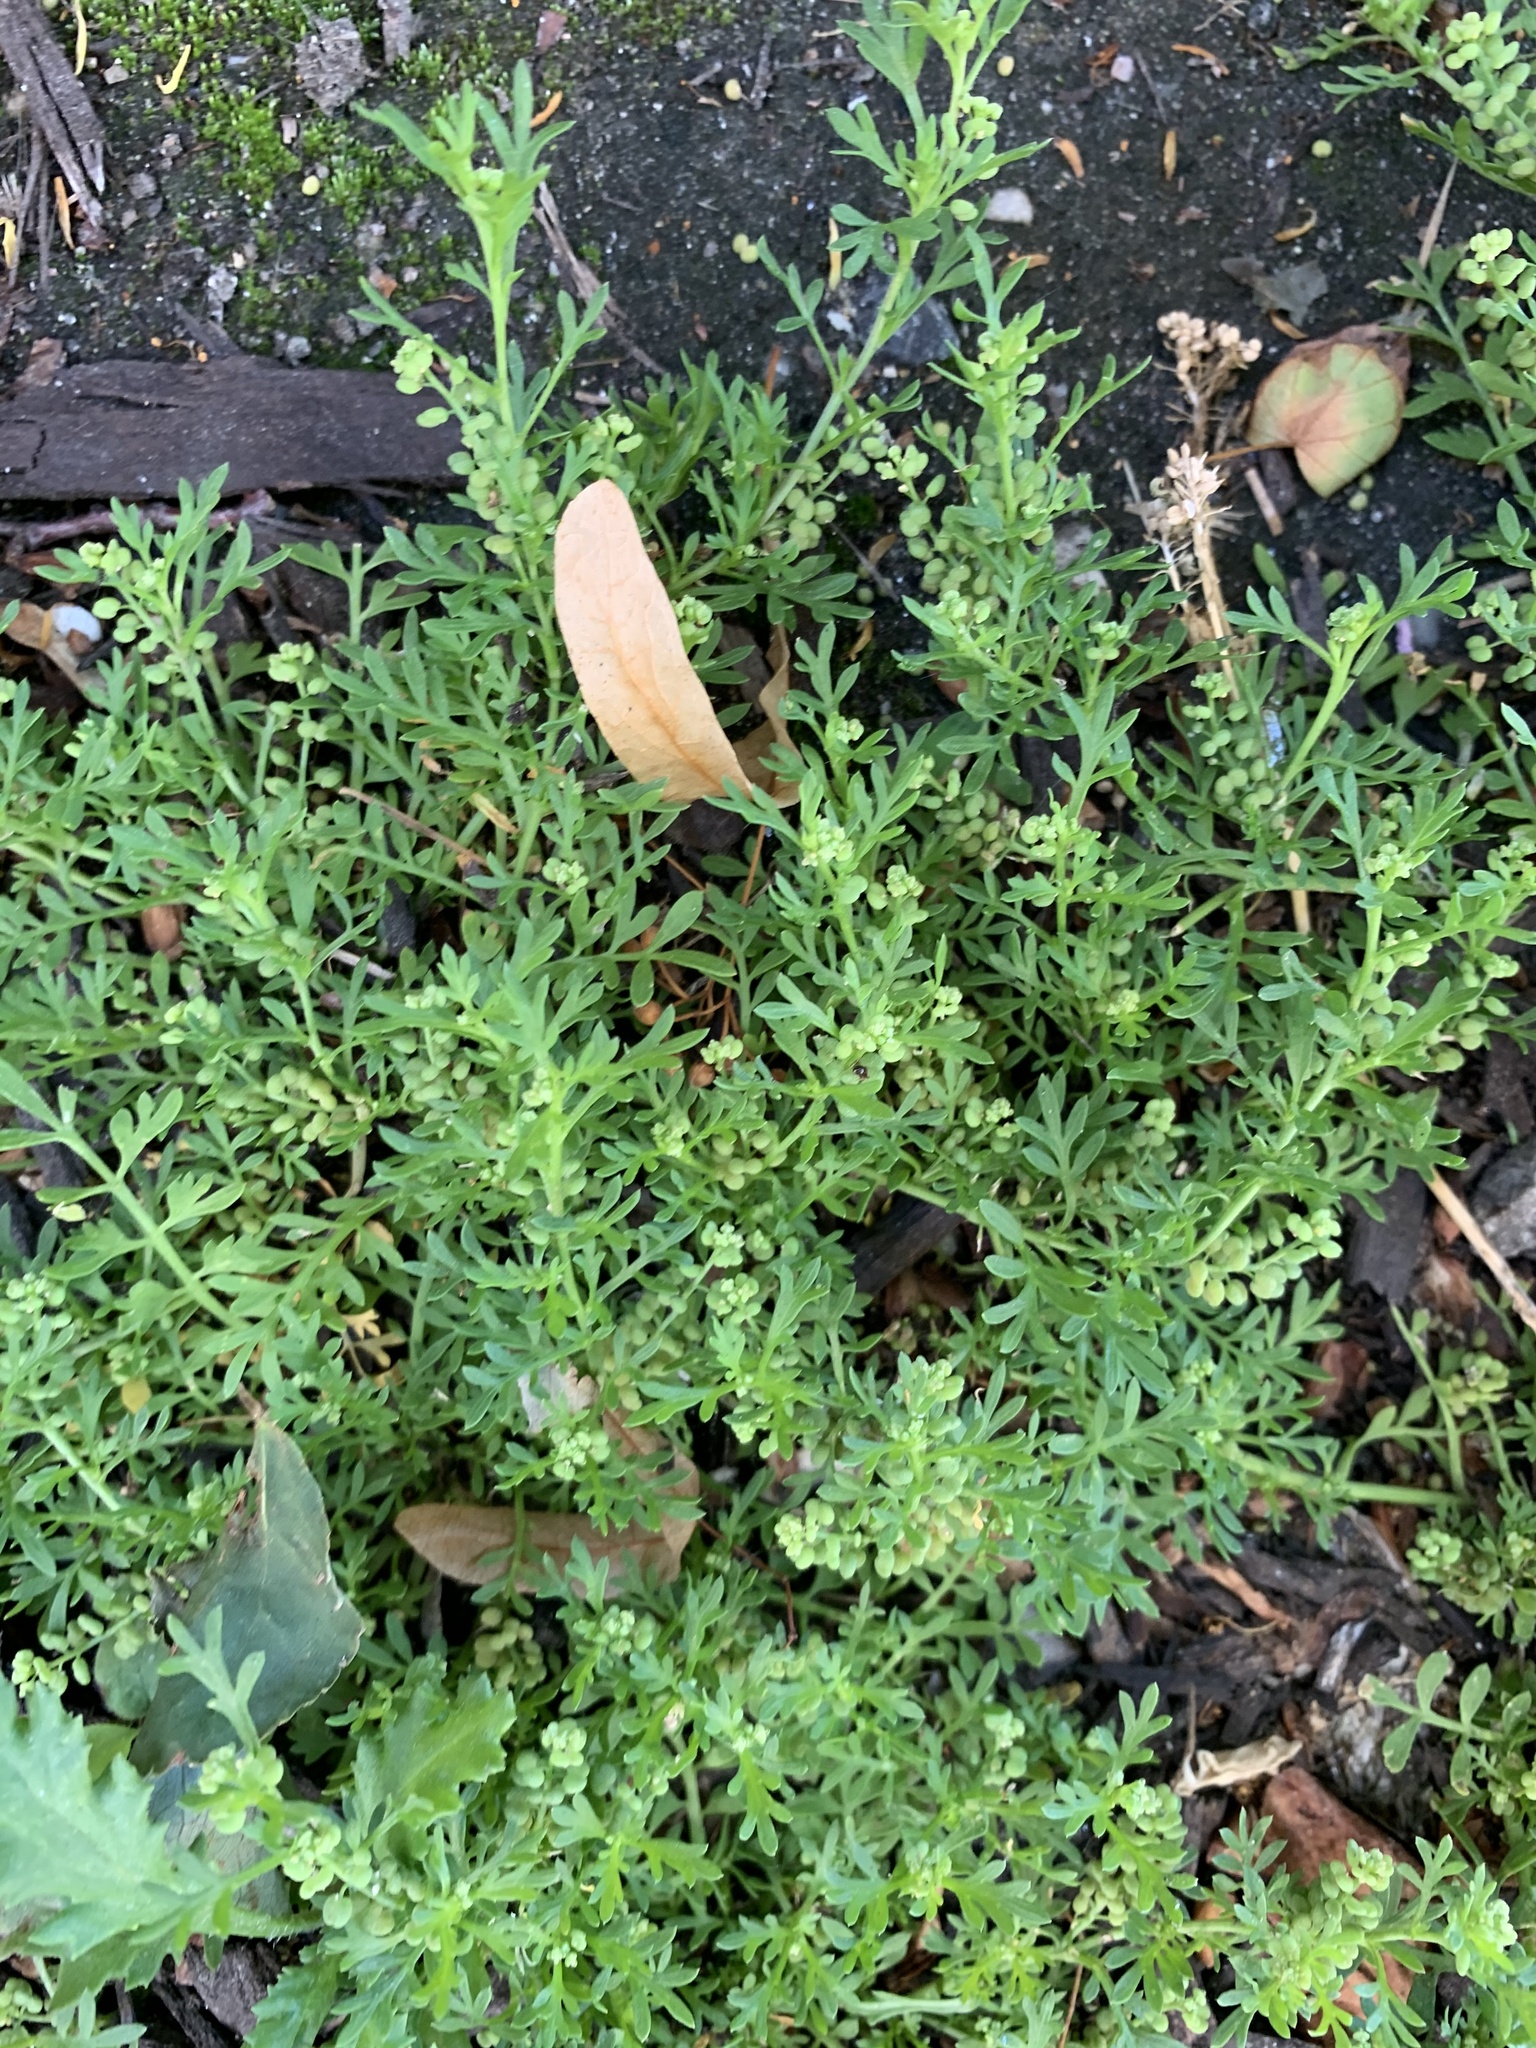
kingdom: Plantae
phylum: Tracheophyta
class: Magnoliopsida
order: Brassicales
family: Brassicaceae
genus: Lepidium
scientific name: Lepidium didymum
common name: Lesser swinecress
